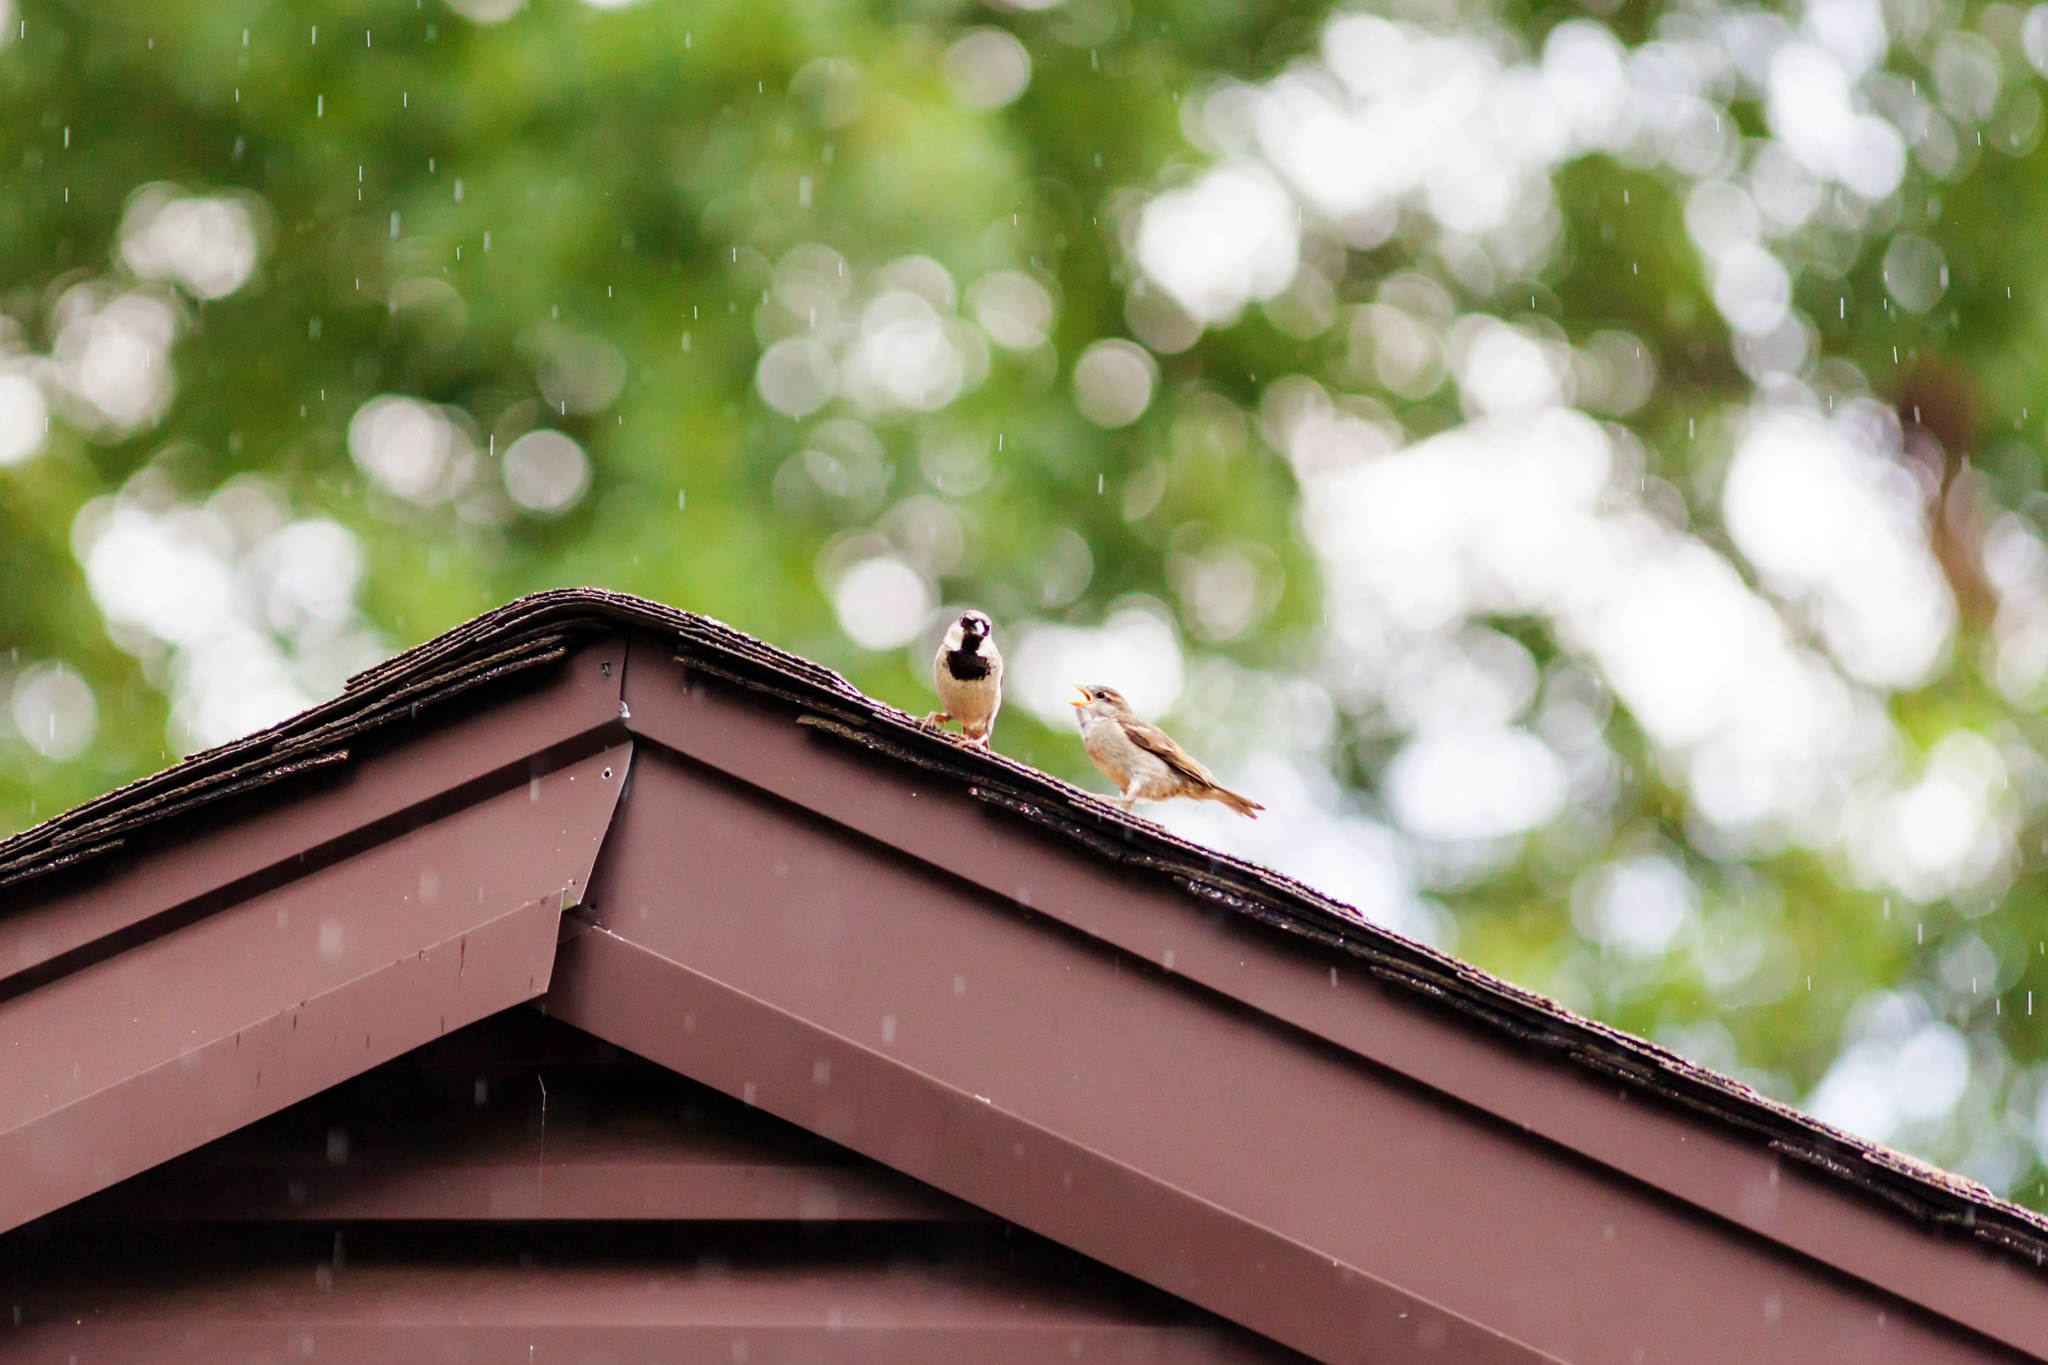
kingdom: Animalia
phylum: Chordata
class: Aves
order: Passeriformes
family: Passeridae
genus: Passer
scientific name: Passer domesticus
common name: House sparrow
